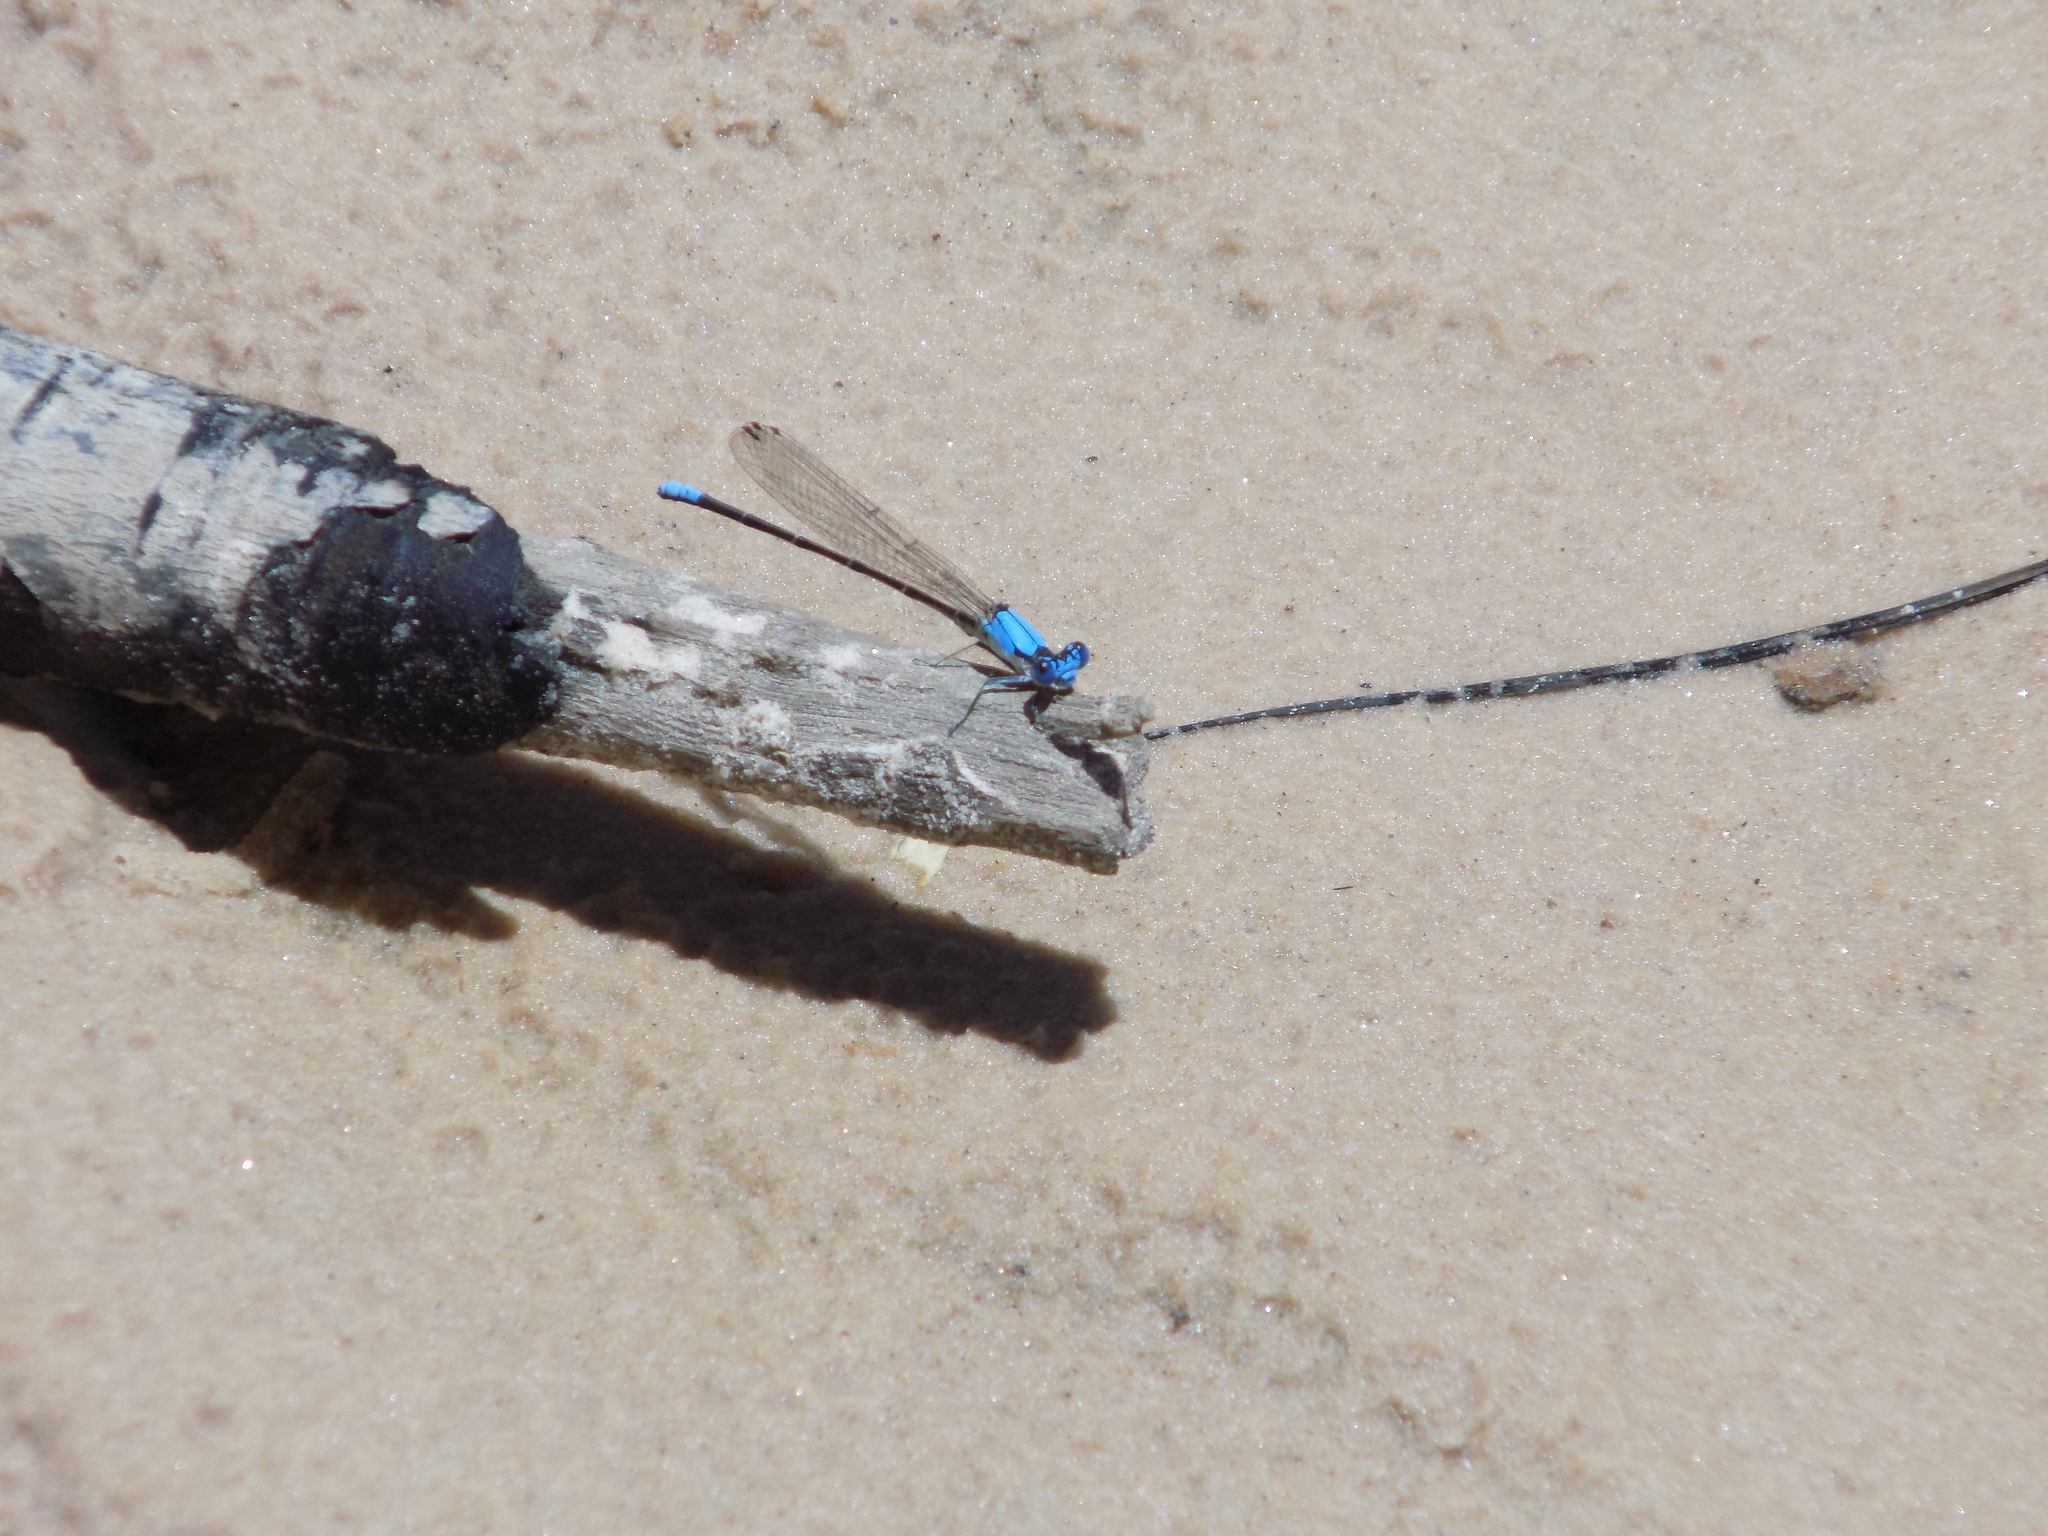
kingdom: Animalia
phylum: Arthropoda
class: Insecta
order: Odonata
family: Coenagrionidae
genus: Argia
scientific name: Argia apicalis
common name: Blue-fronted dancer
